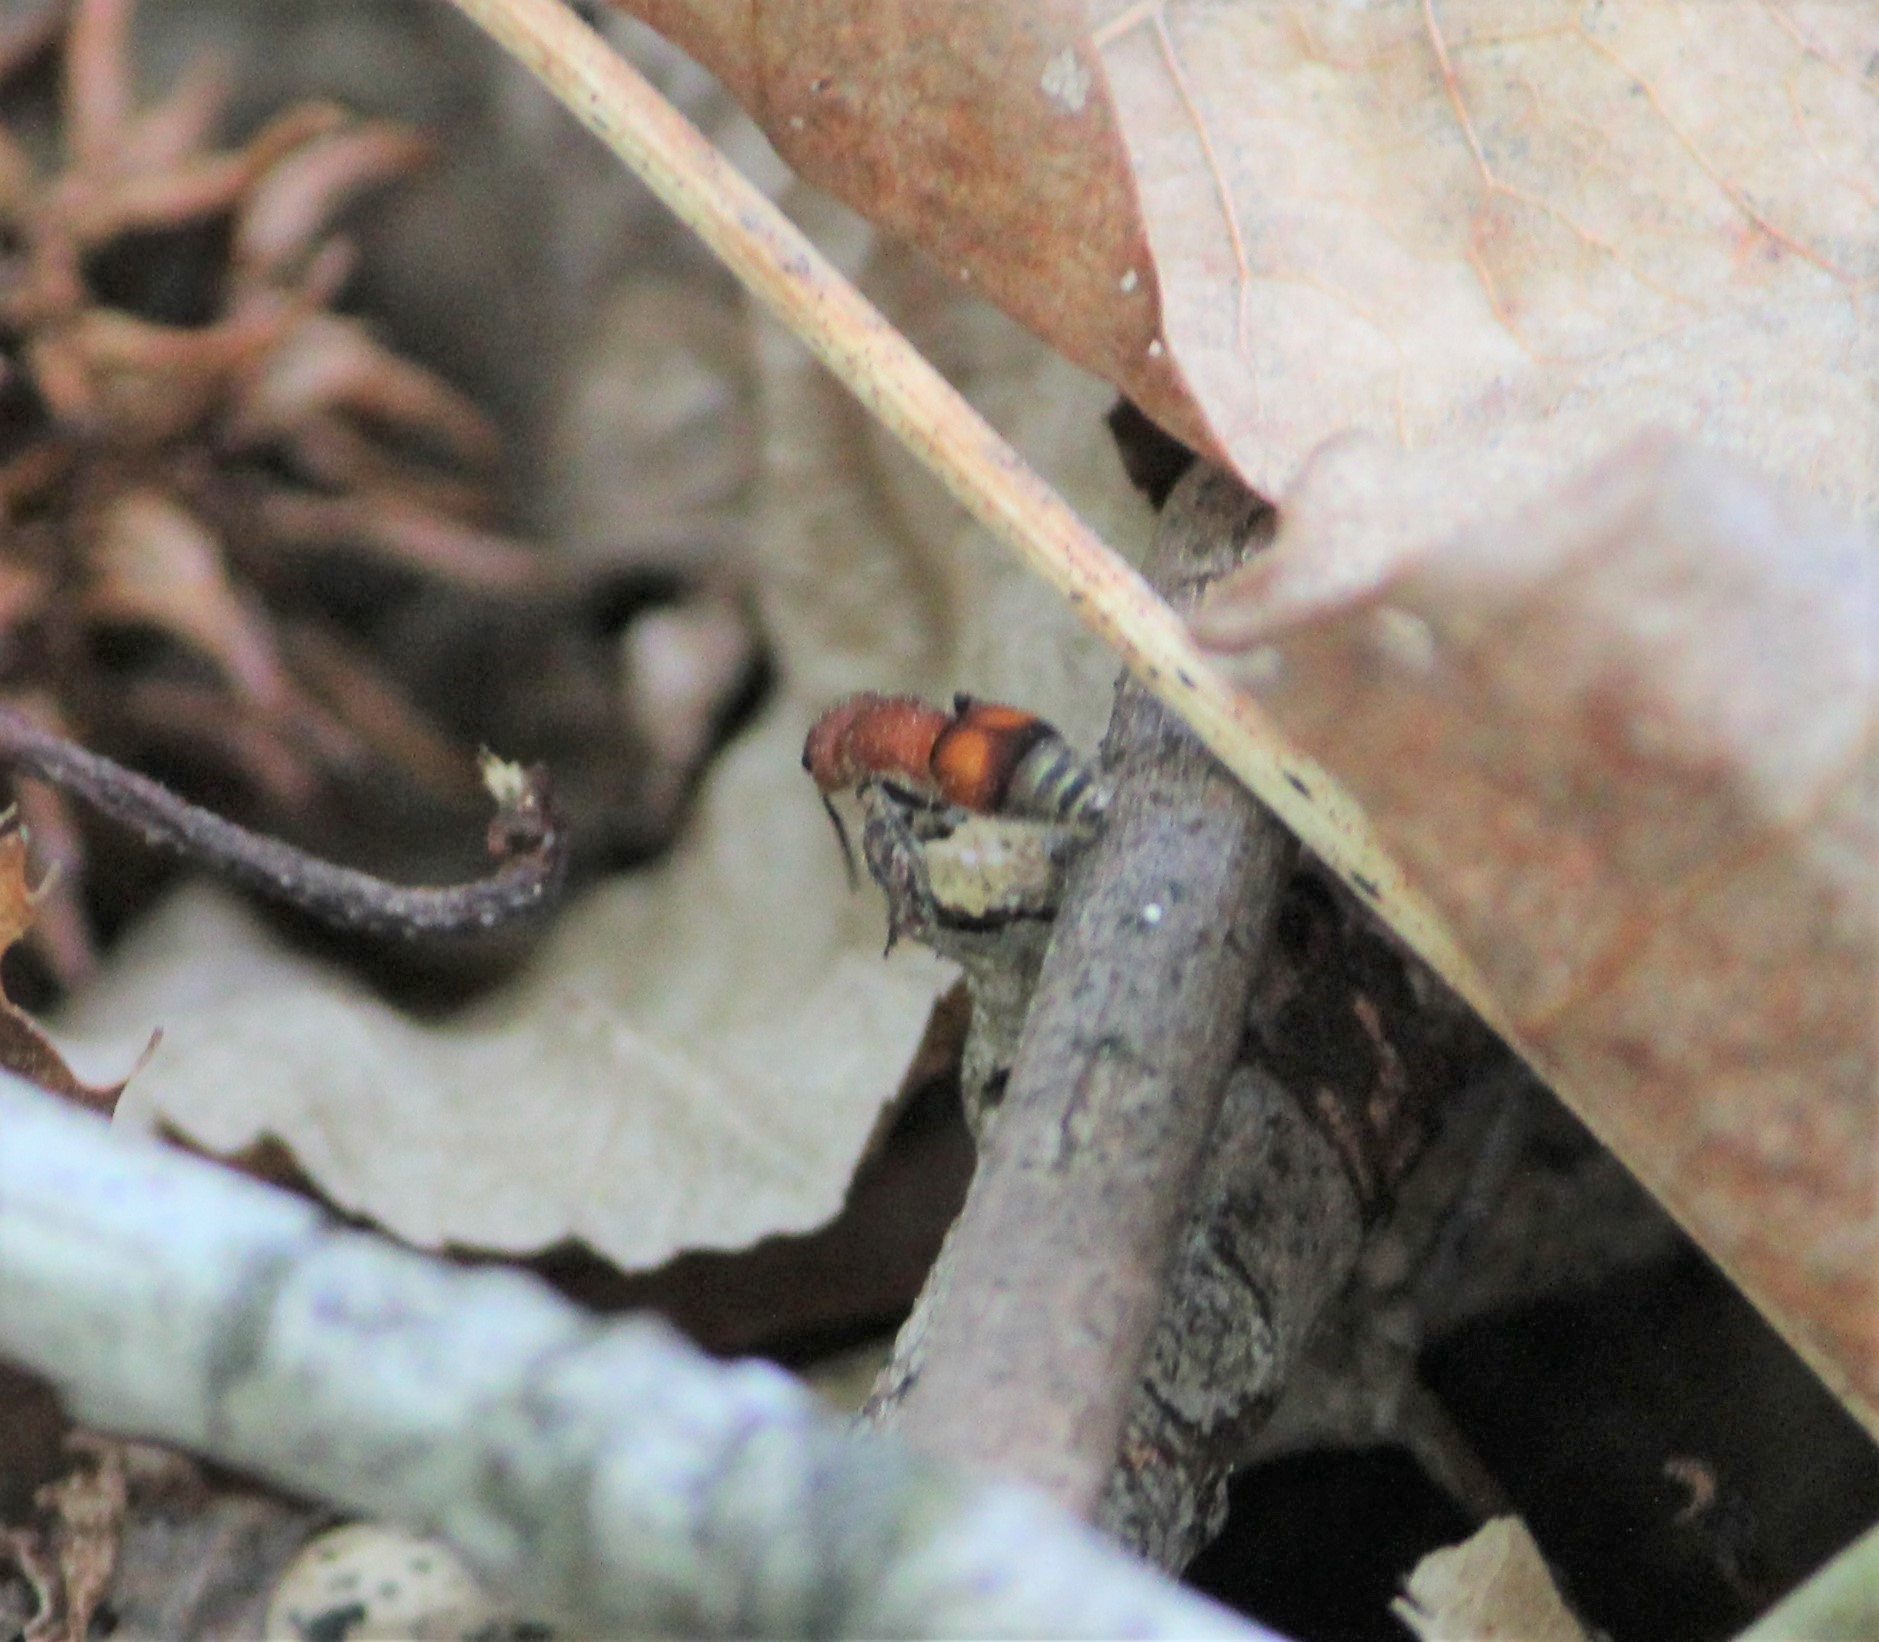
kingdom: Animalia
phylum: Arthropoda
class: Insecta
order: Hymenoptera
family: Mutillidae
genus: Pseudomethoca
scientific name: Pseudomethoca
